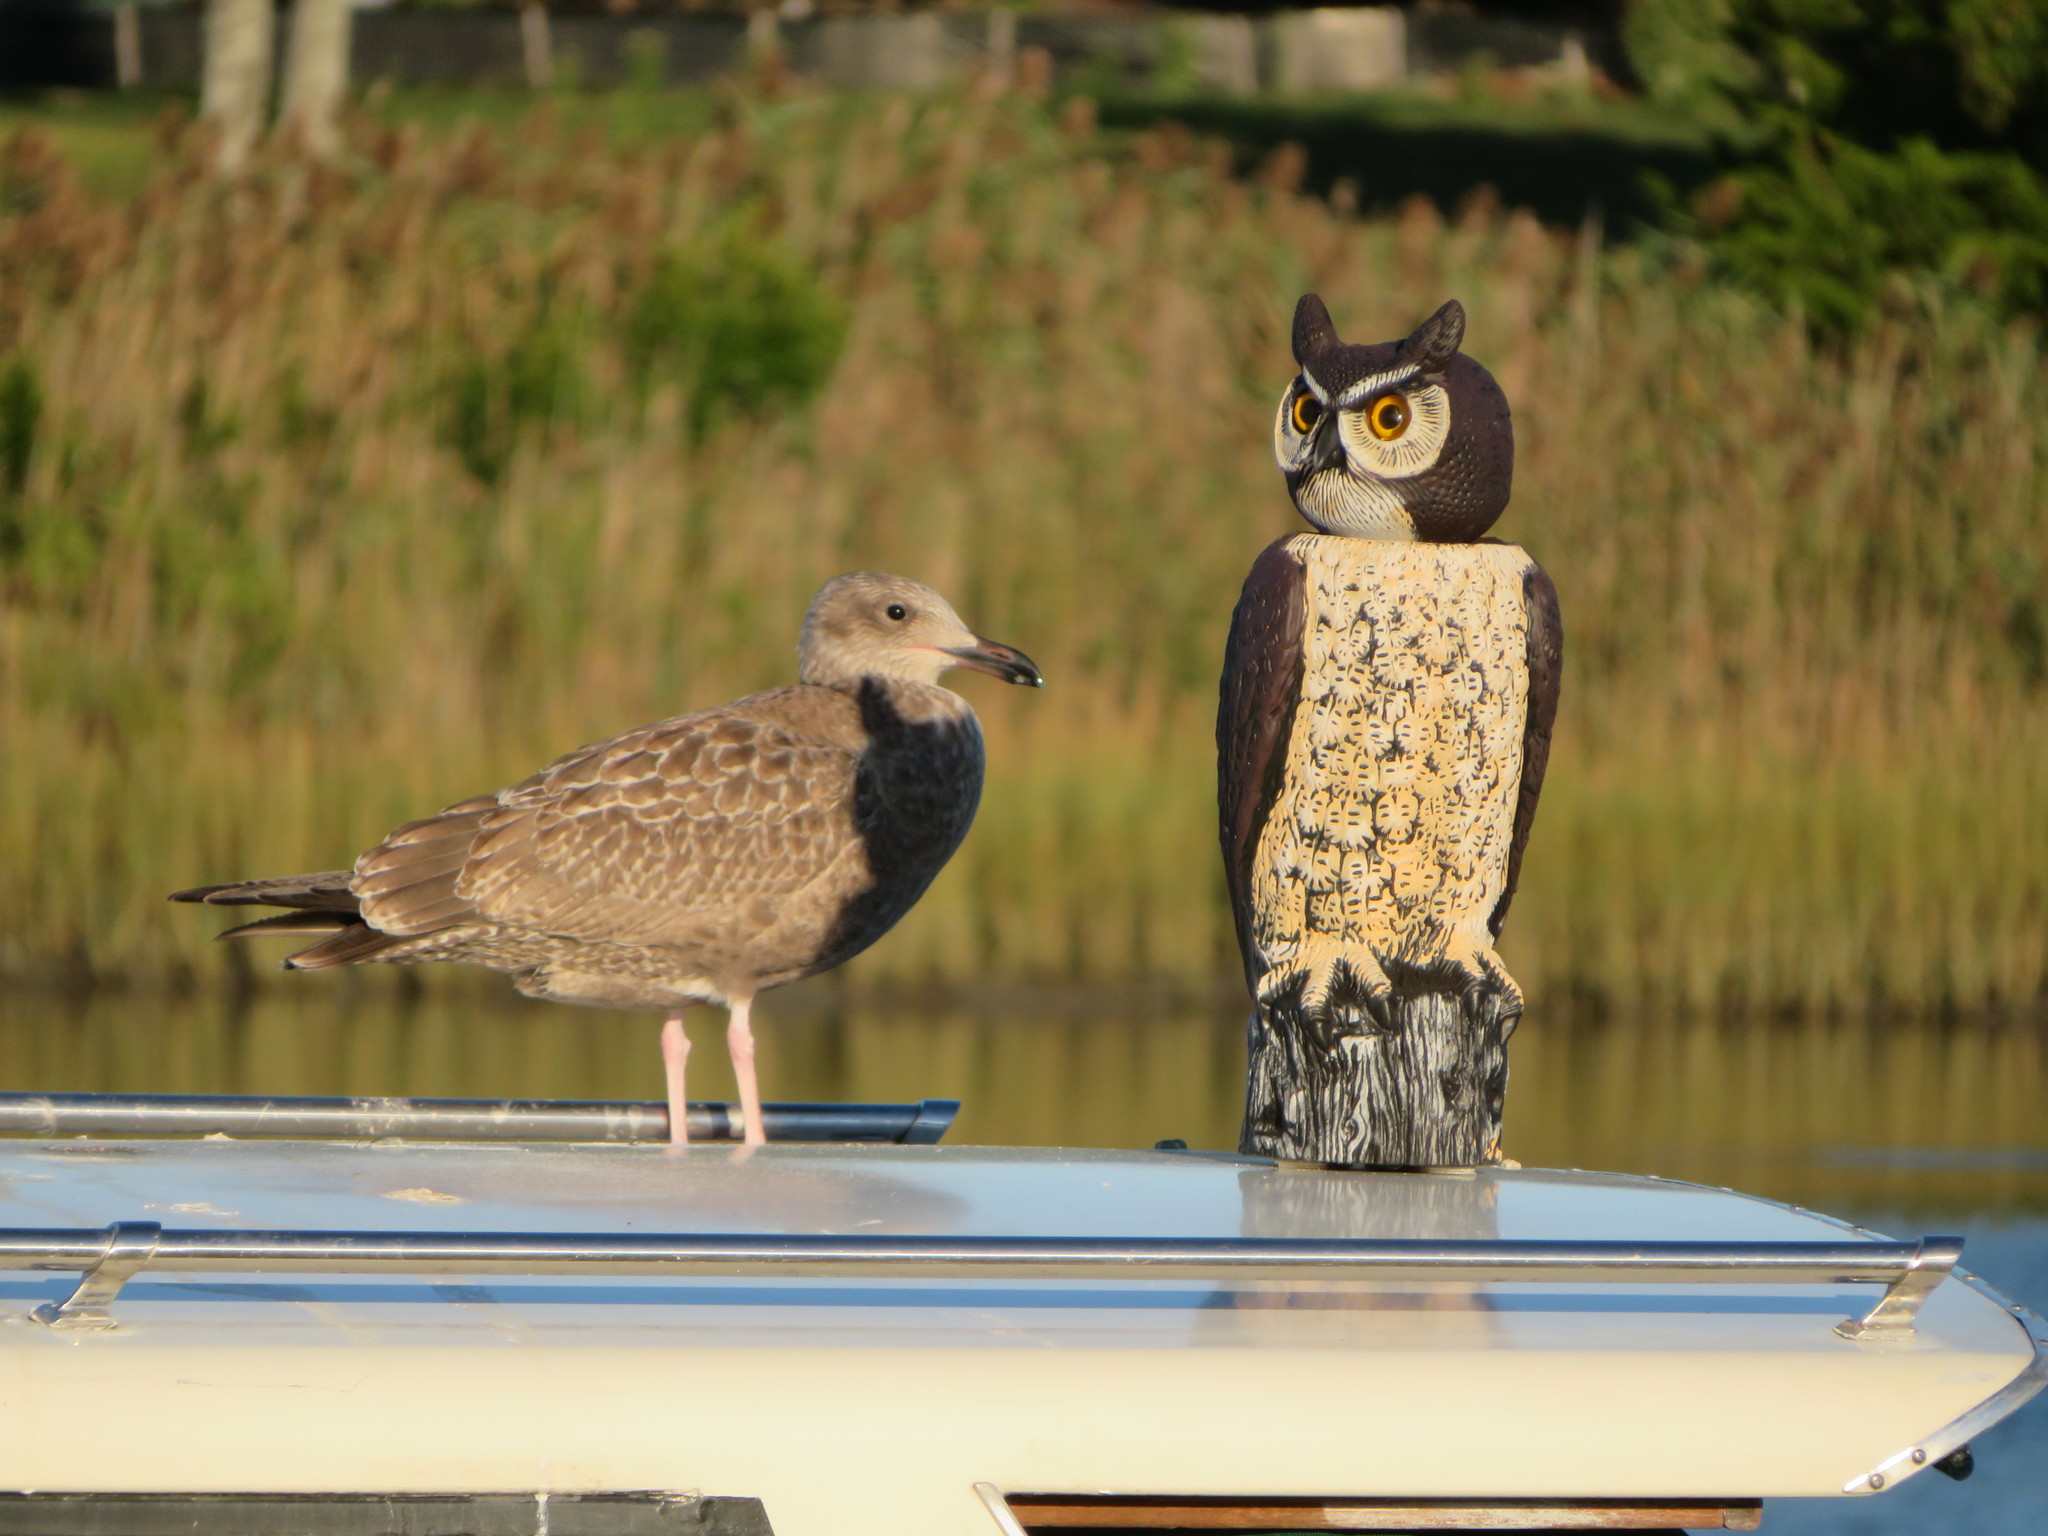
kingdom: Animalia
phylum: Chordata
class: Aves
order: Charadriiformes
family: Laridae
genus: Larus
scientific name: Larus argentatus
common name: Herring gull
